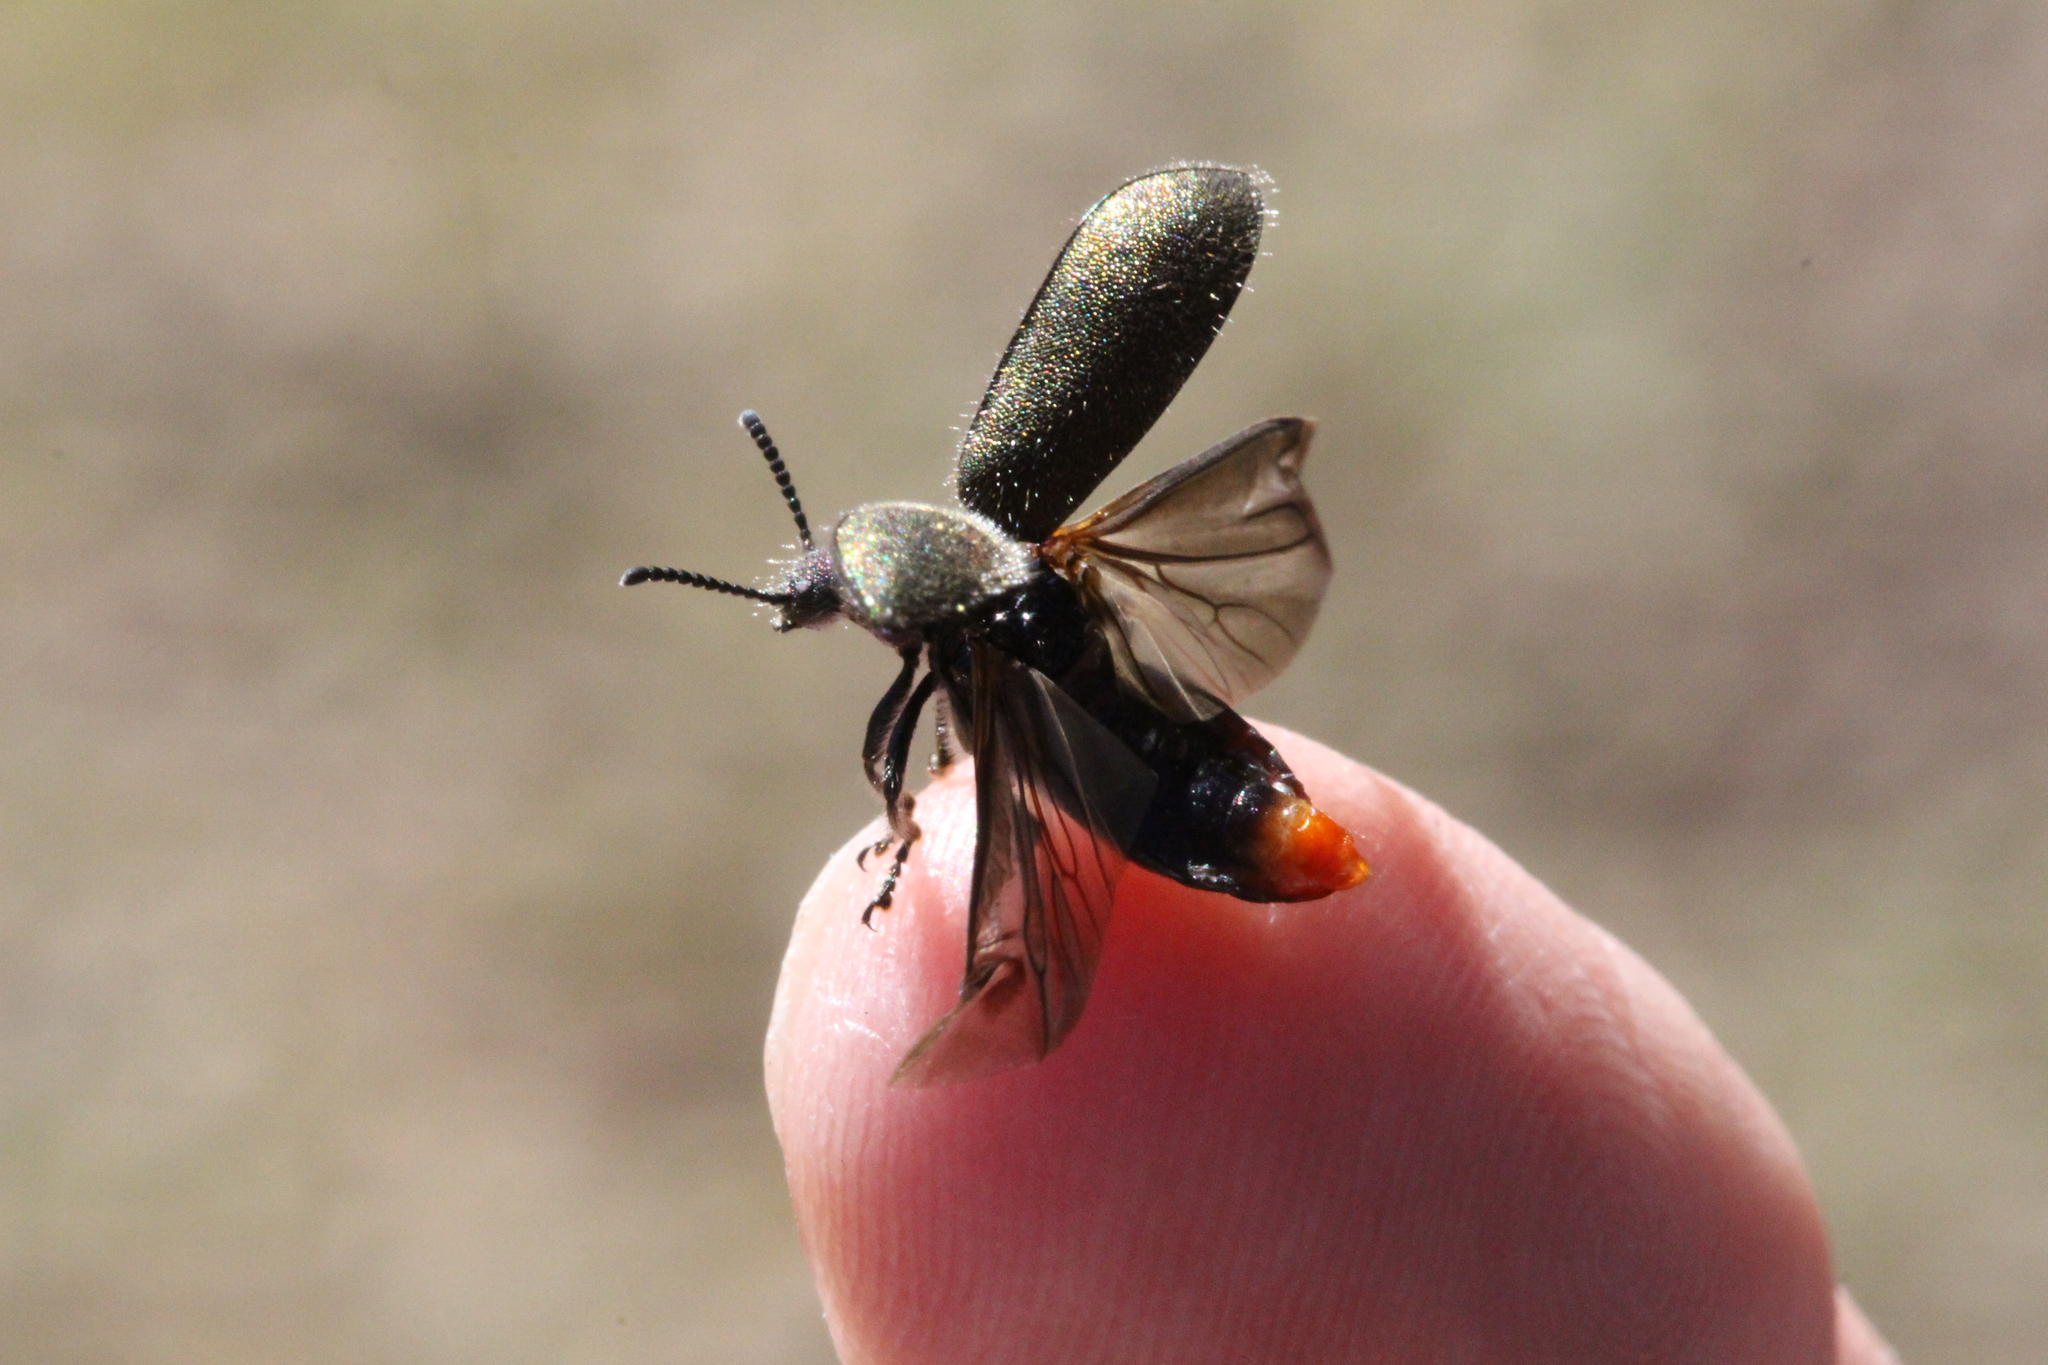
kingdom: Animalia
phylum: Arthropoda
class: Insecta
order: Coleoptera
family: Tenebrionidae
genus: Lagria
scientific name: Lagria villosa
